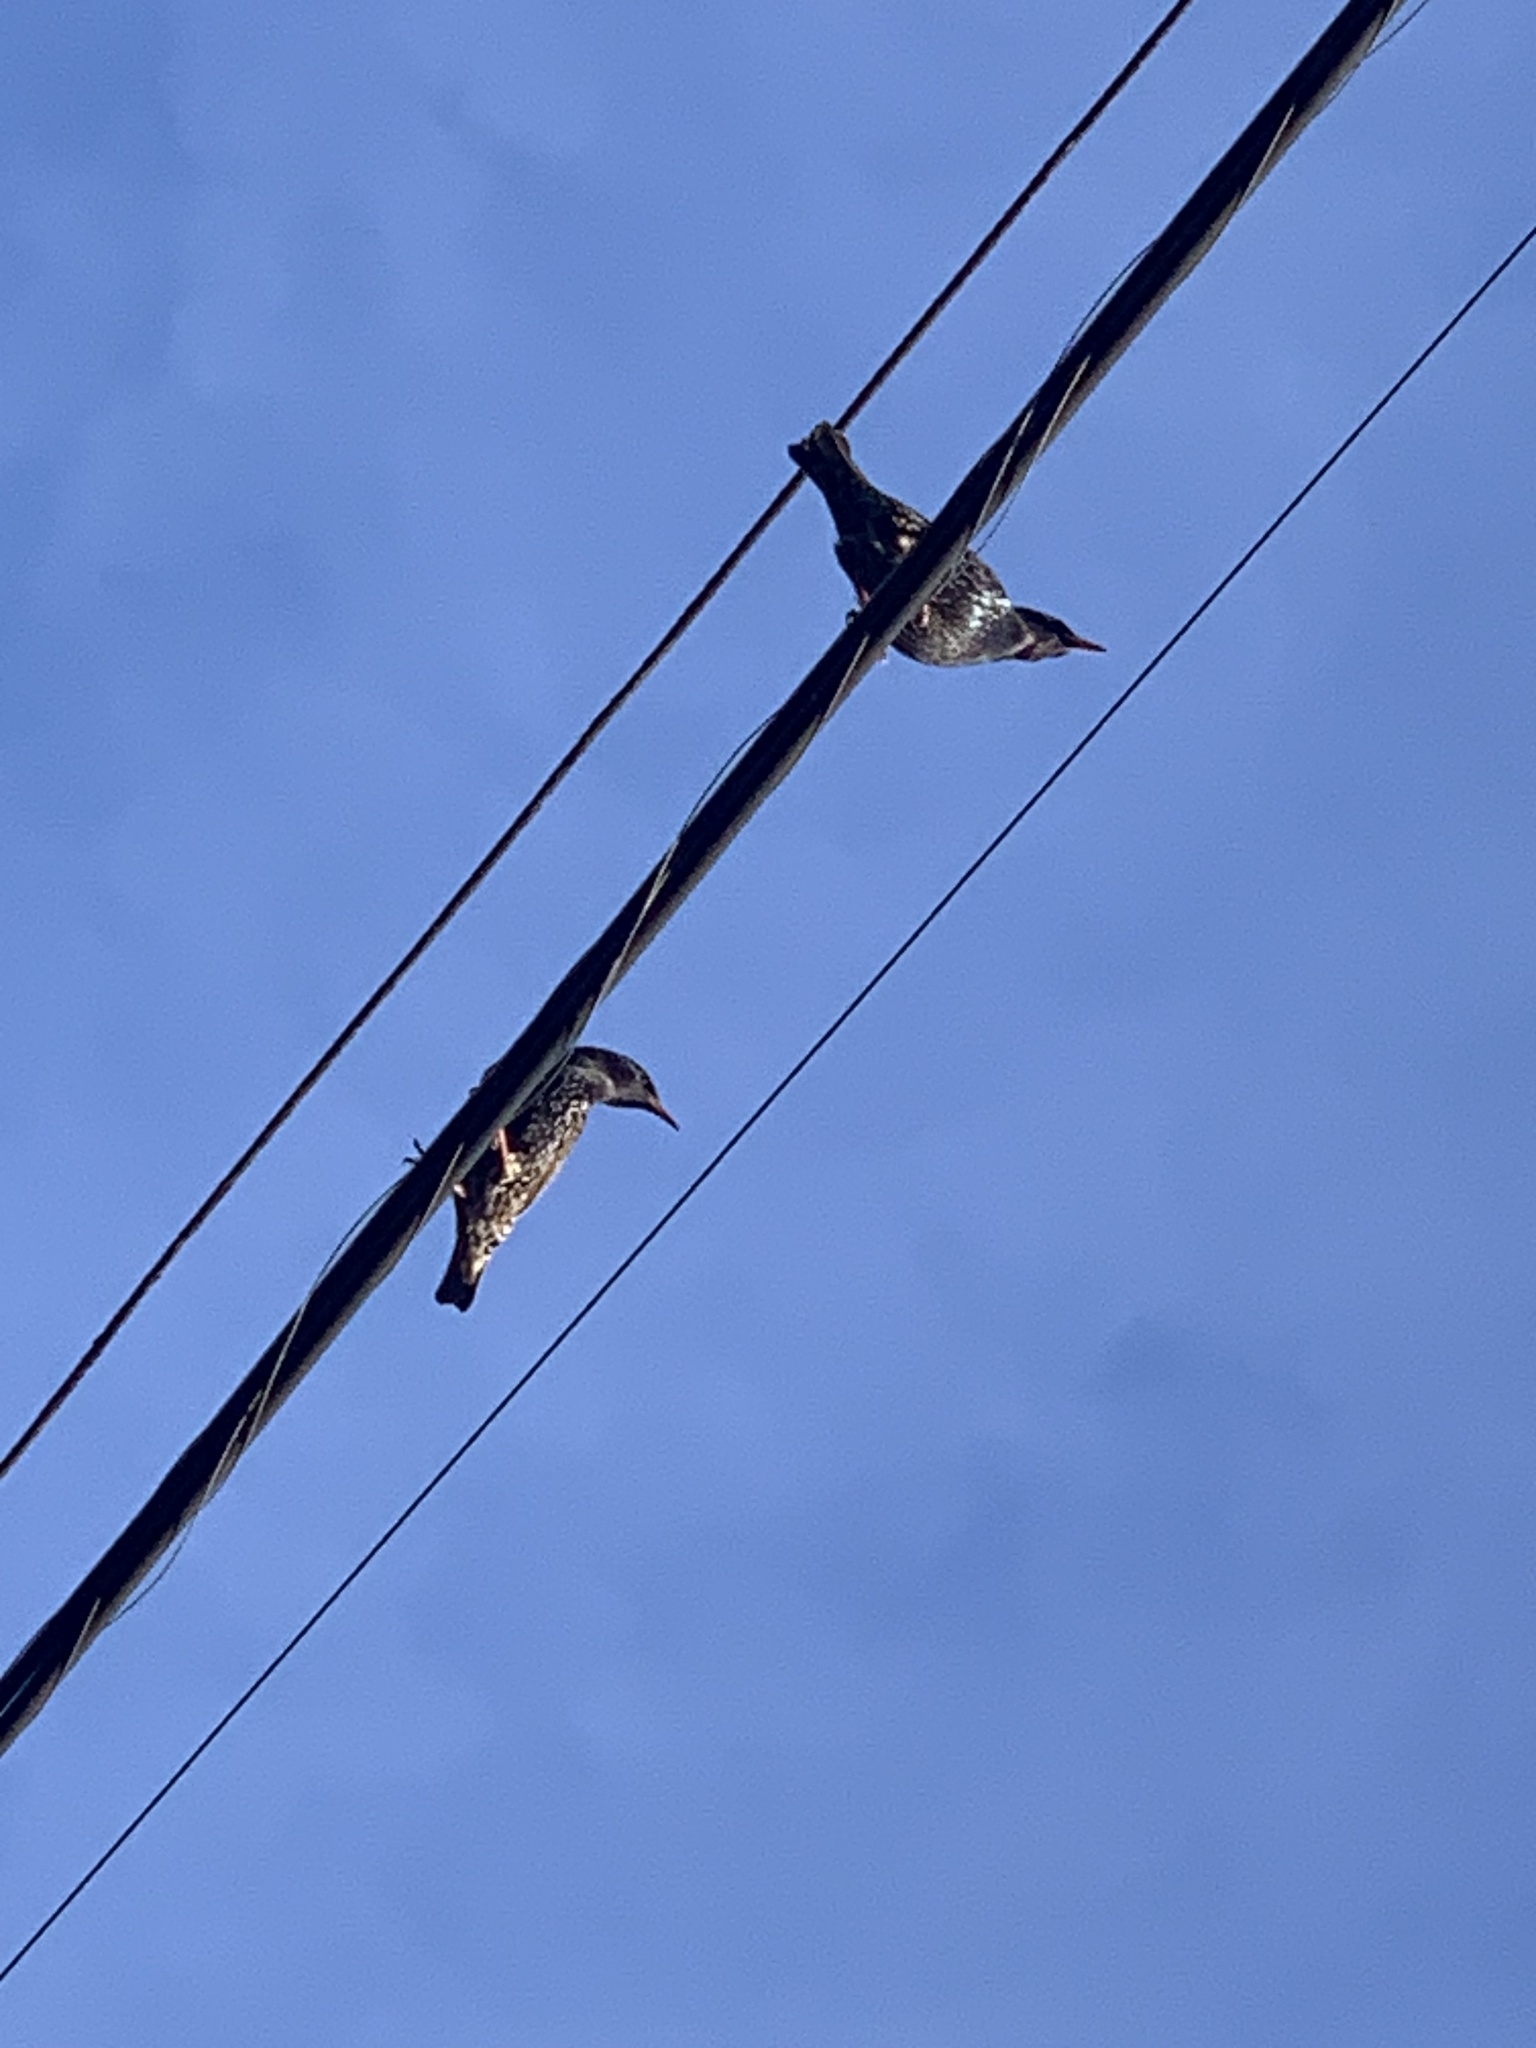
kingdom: Animalia
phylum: Chordata
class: Aves
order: Passeriformes
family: Sturnidae
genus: Sturnus
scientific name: Sturnus vulgaris
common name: Common starling
